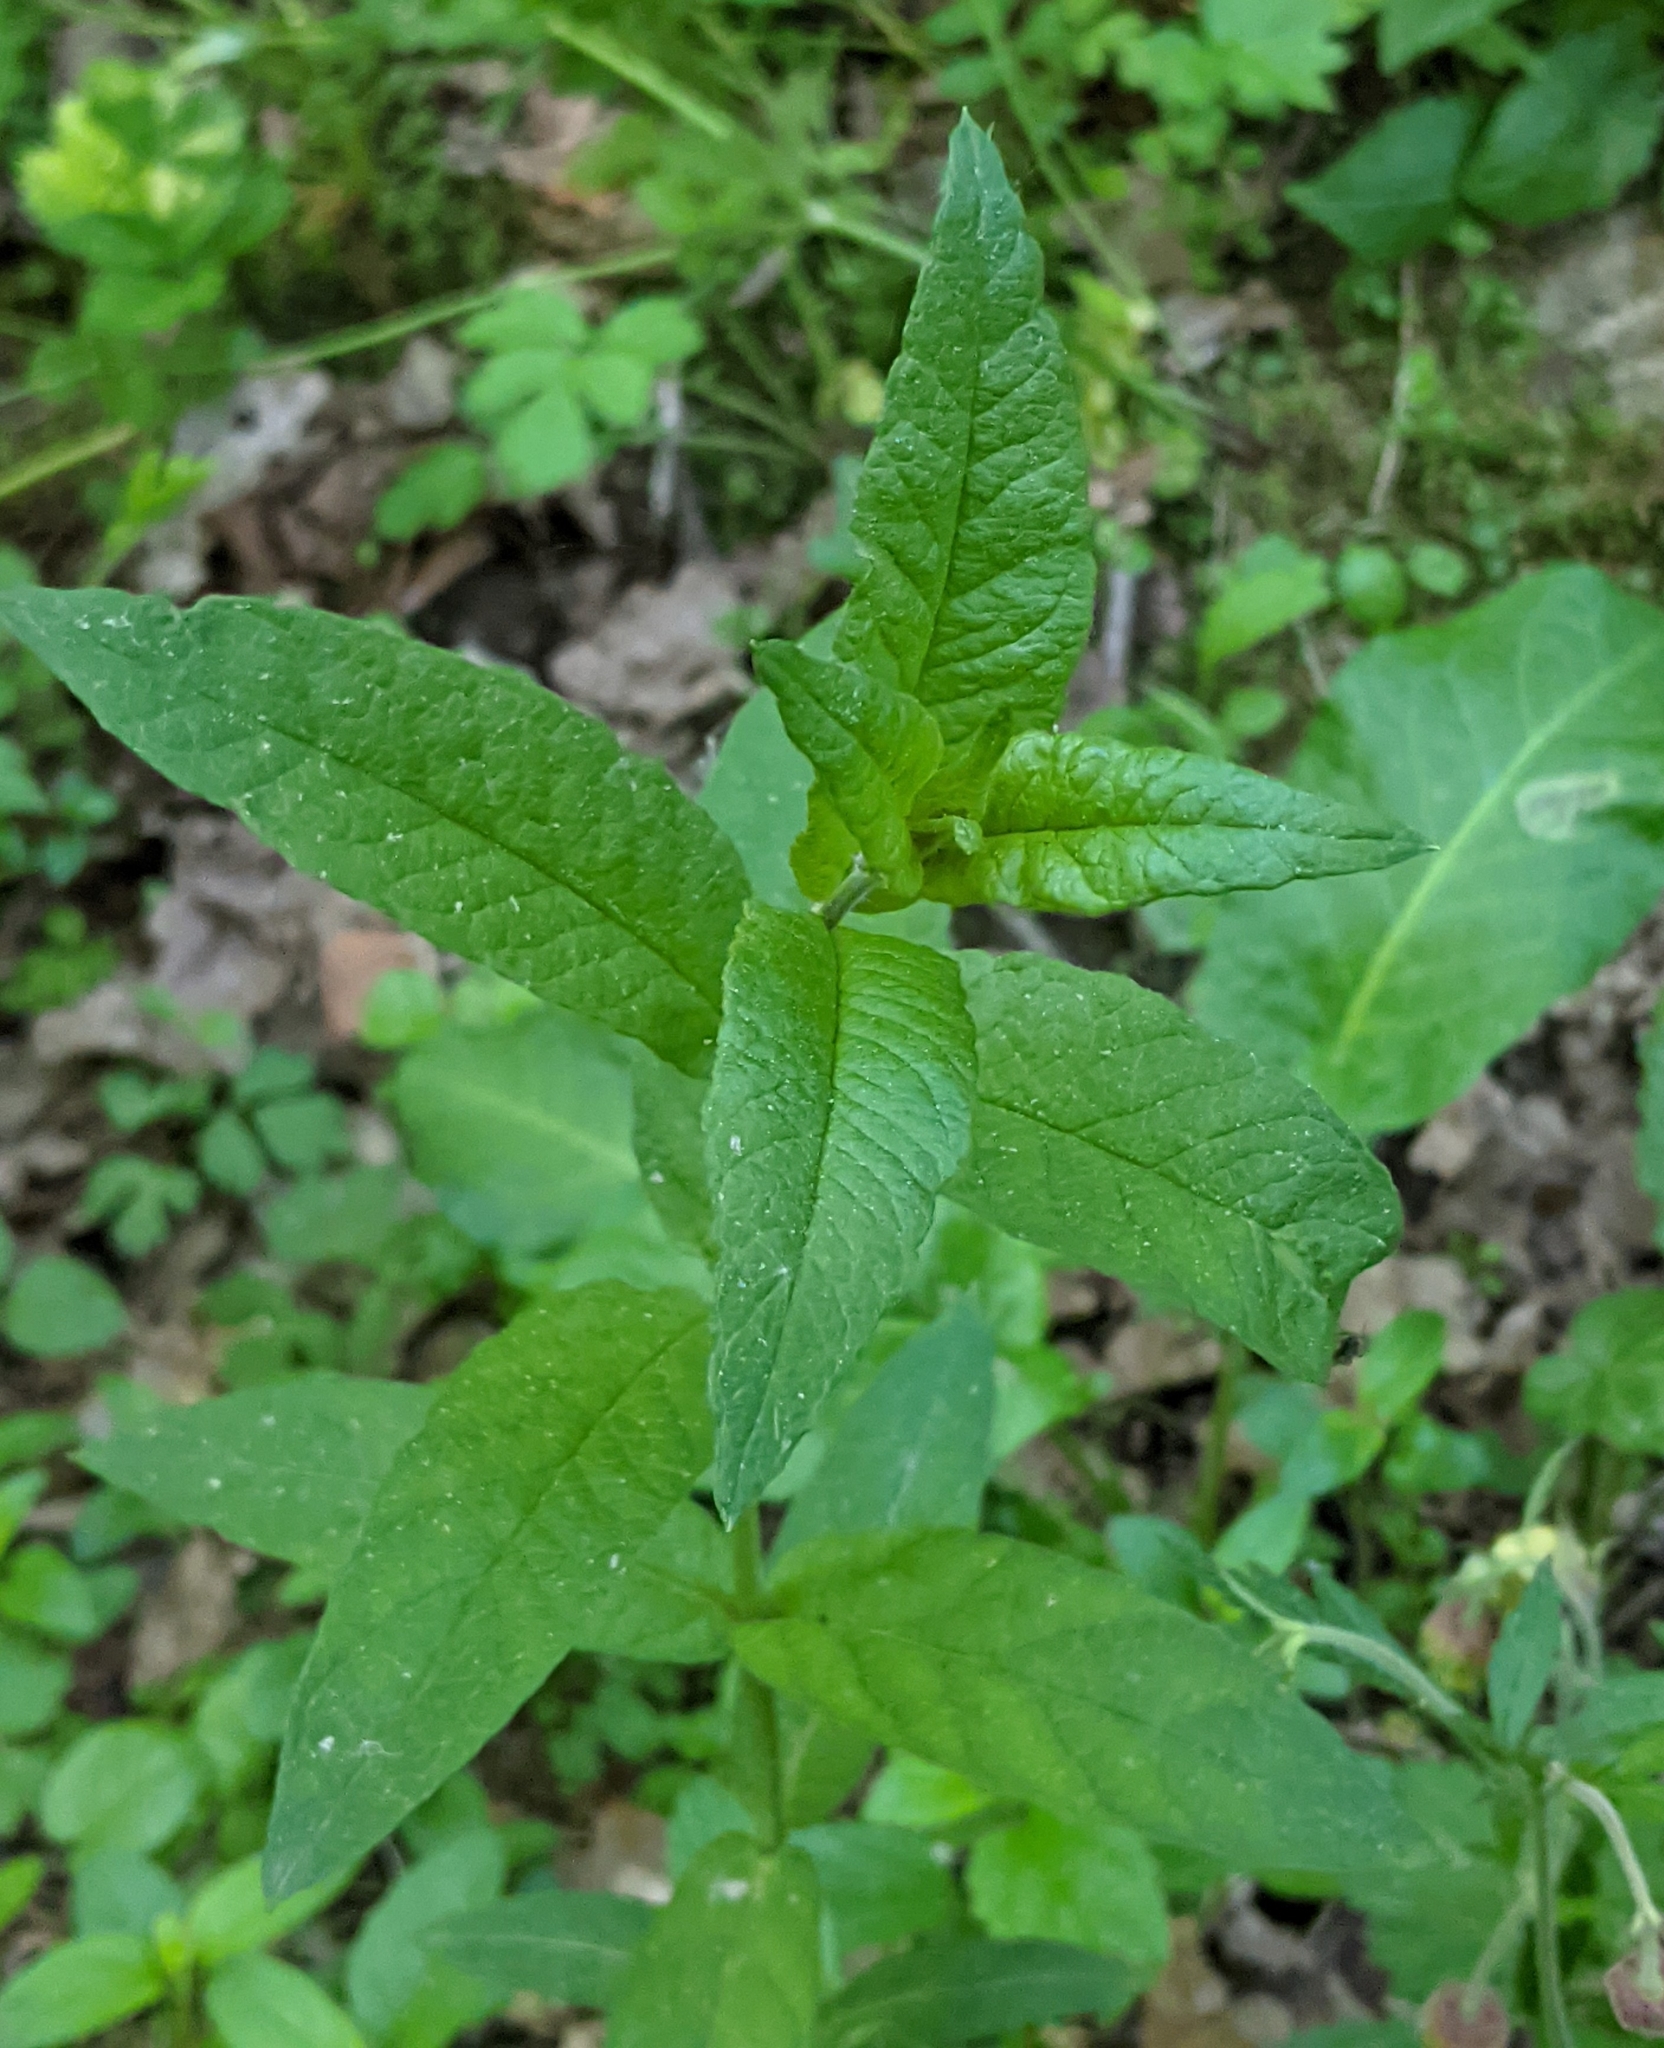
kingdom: Plantae
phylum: Tracheophyta
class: Magnoliopsida
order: Ericales
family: Primulaceae
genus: Lysimachia
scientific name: Lysimachia vulgaris
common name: Yellow loosestrife
